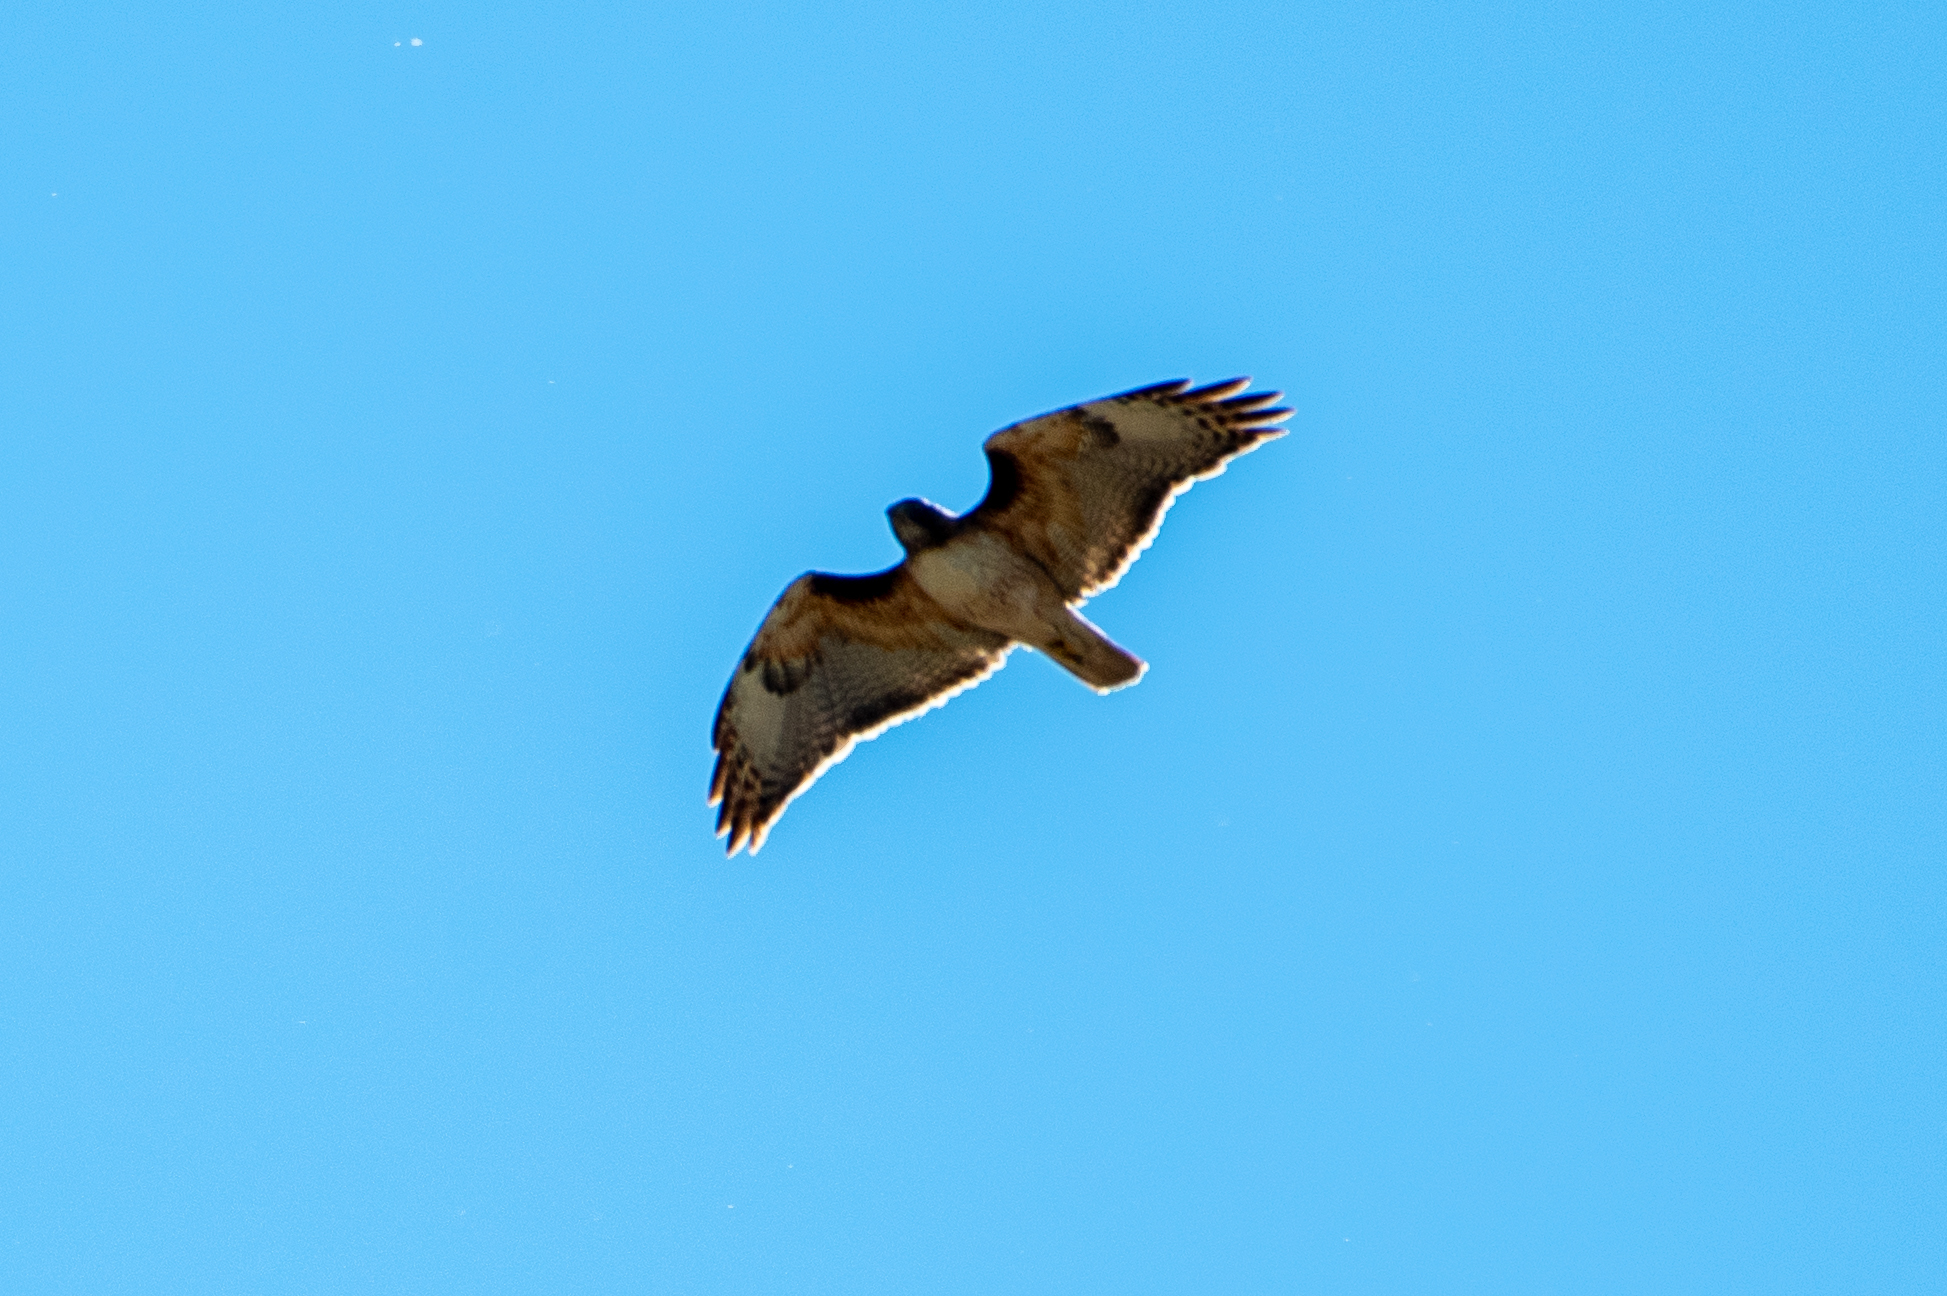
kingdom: Animalia
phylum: Chordata
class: Aves
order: Accipitriformes
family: Accipitridae
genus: Buteo
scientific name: Buteo jamaicensis
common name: Red-tailed hawk
